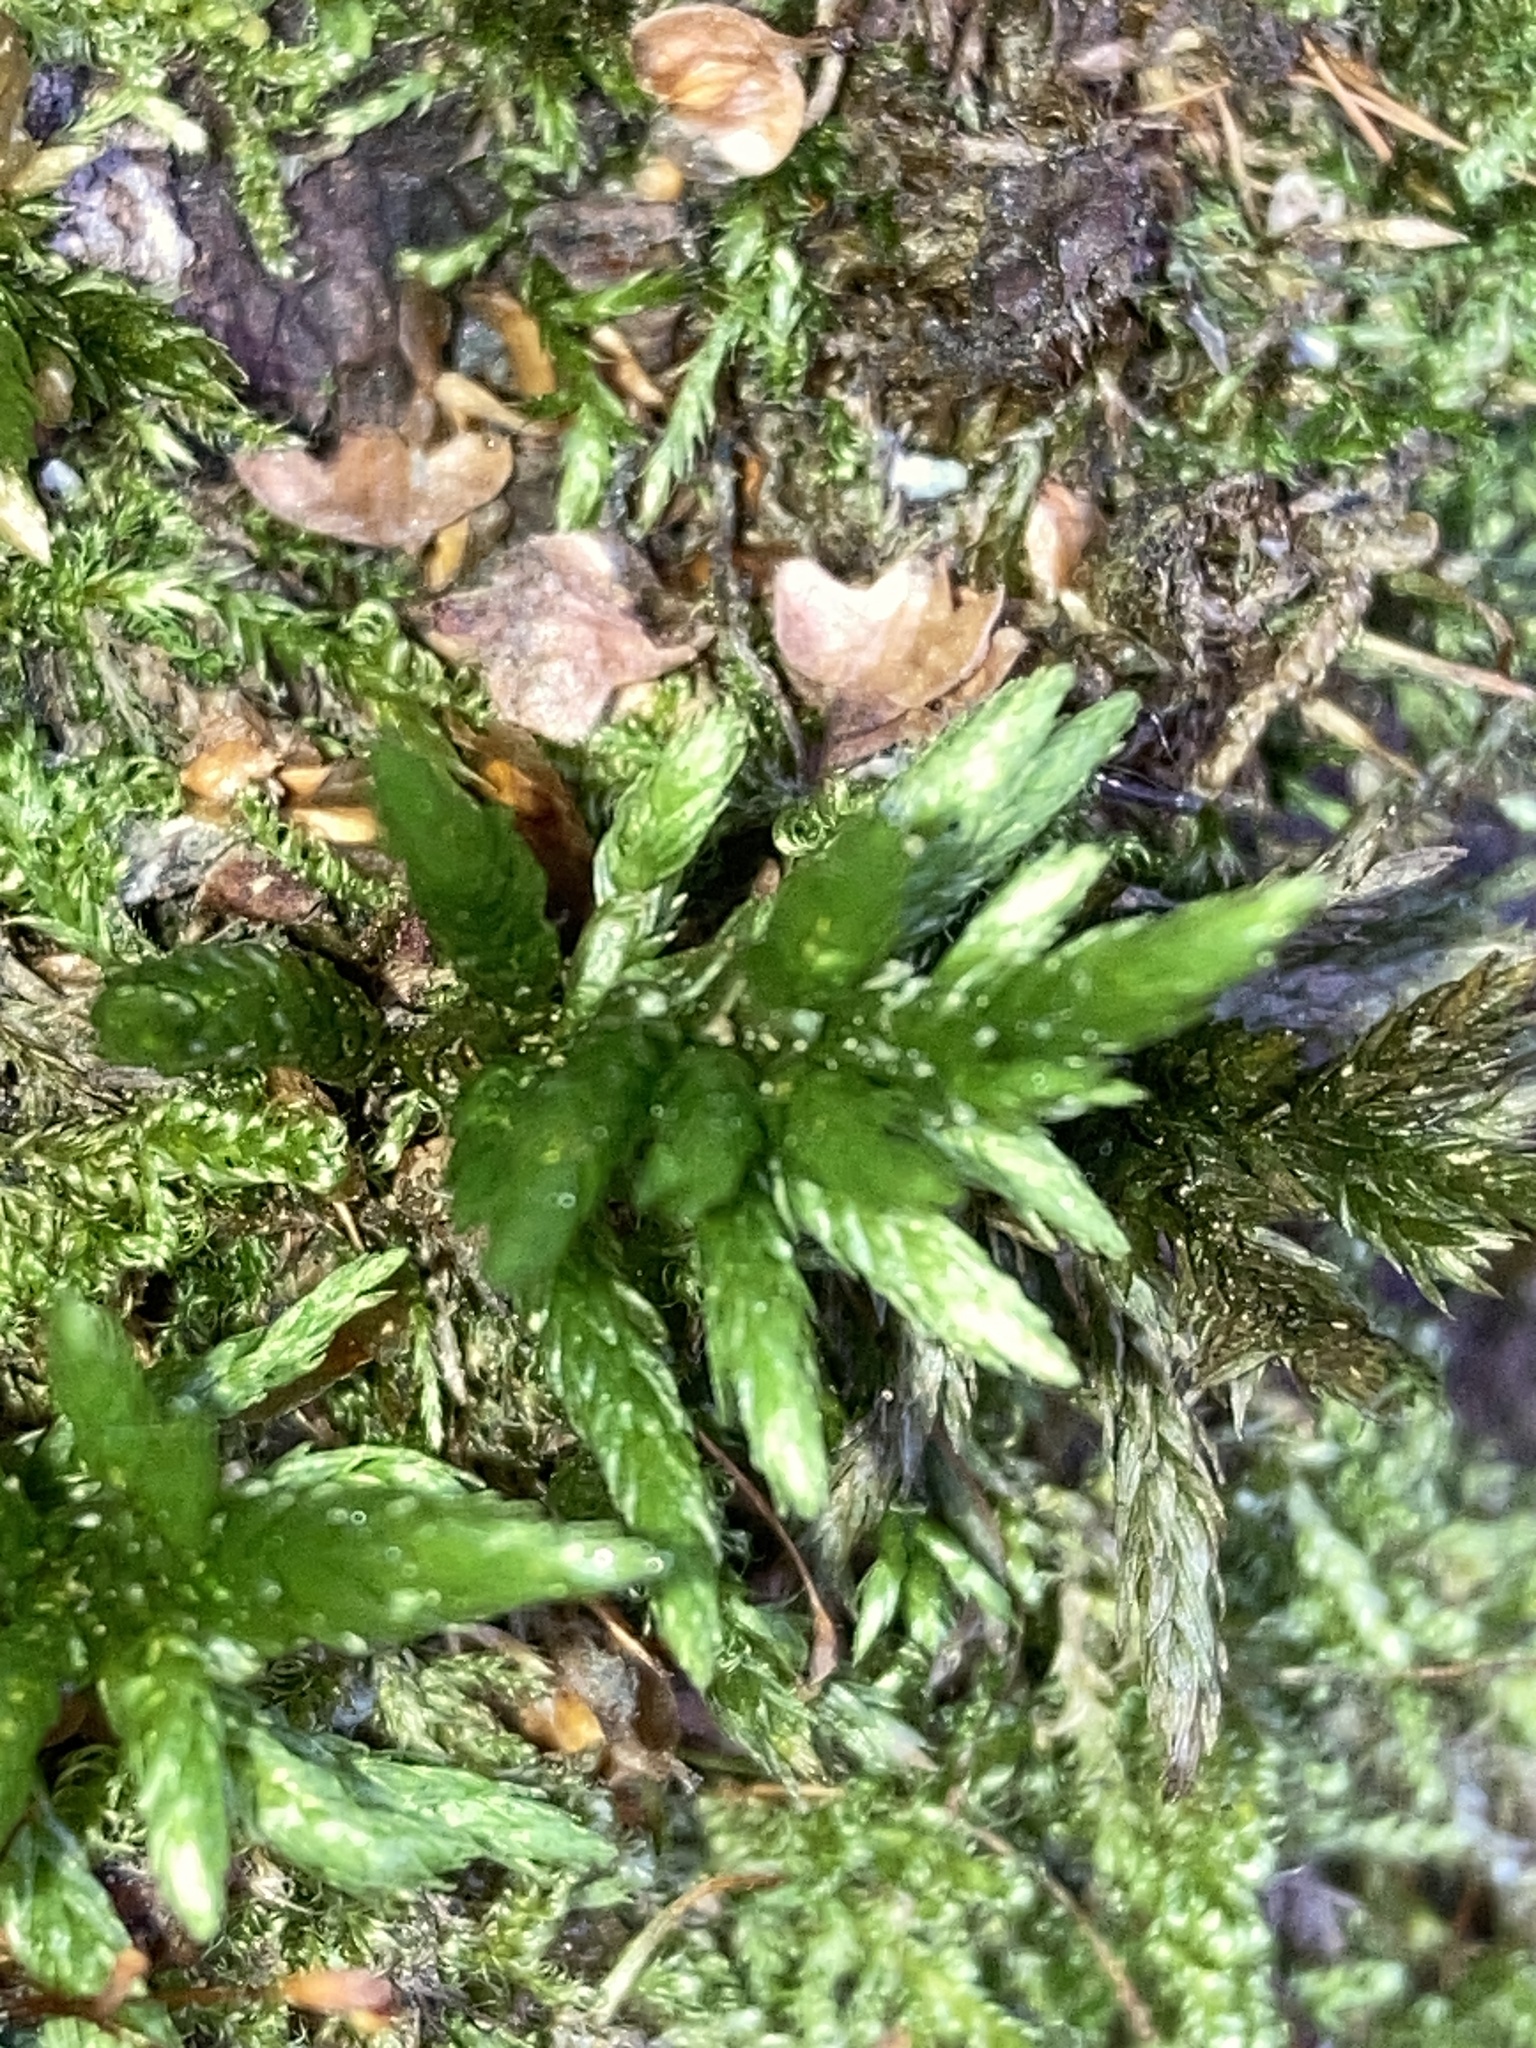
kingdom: Plantae
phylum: Bryophyta
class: Bryopsida
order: Hypnales
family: Climaciaceae
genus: Climacium
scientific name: Climacium dendroides
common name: Northern tree moss
